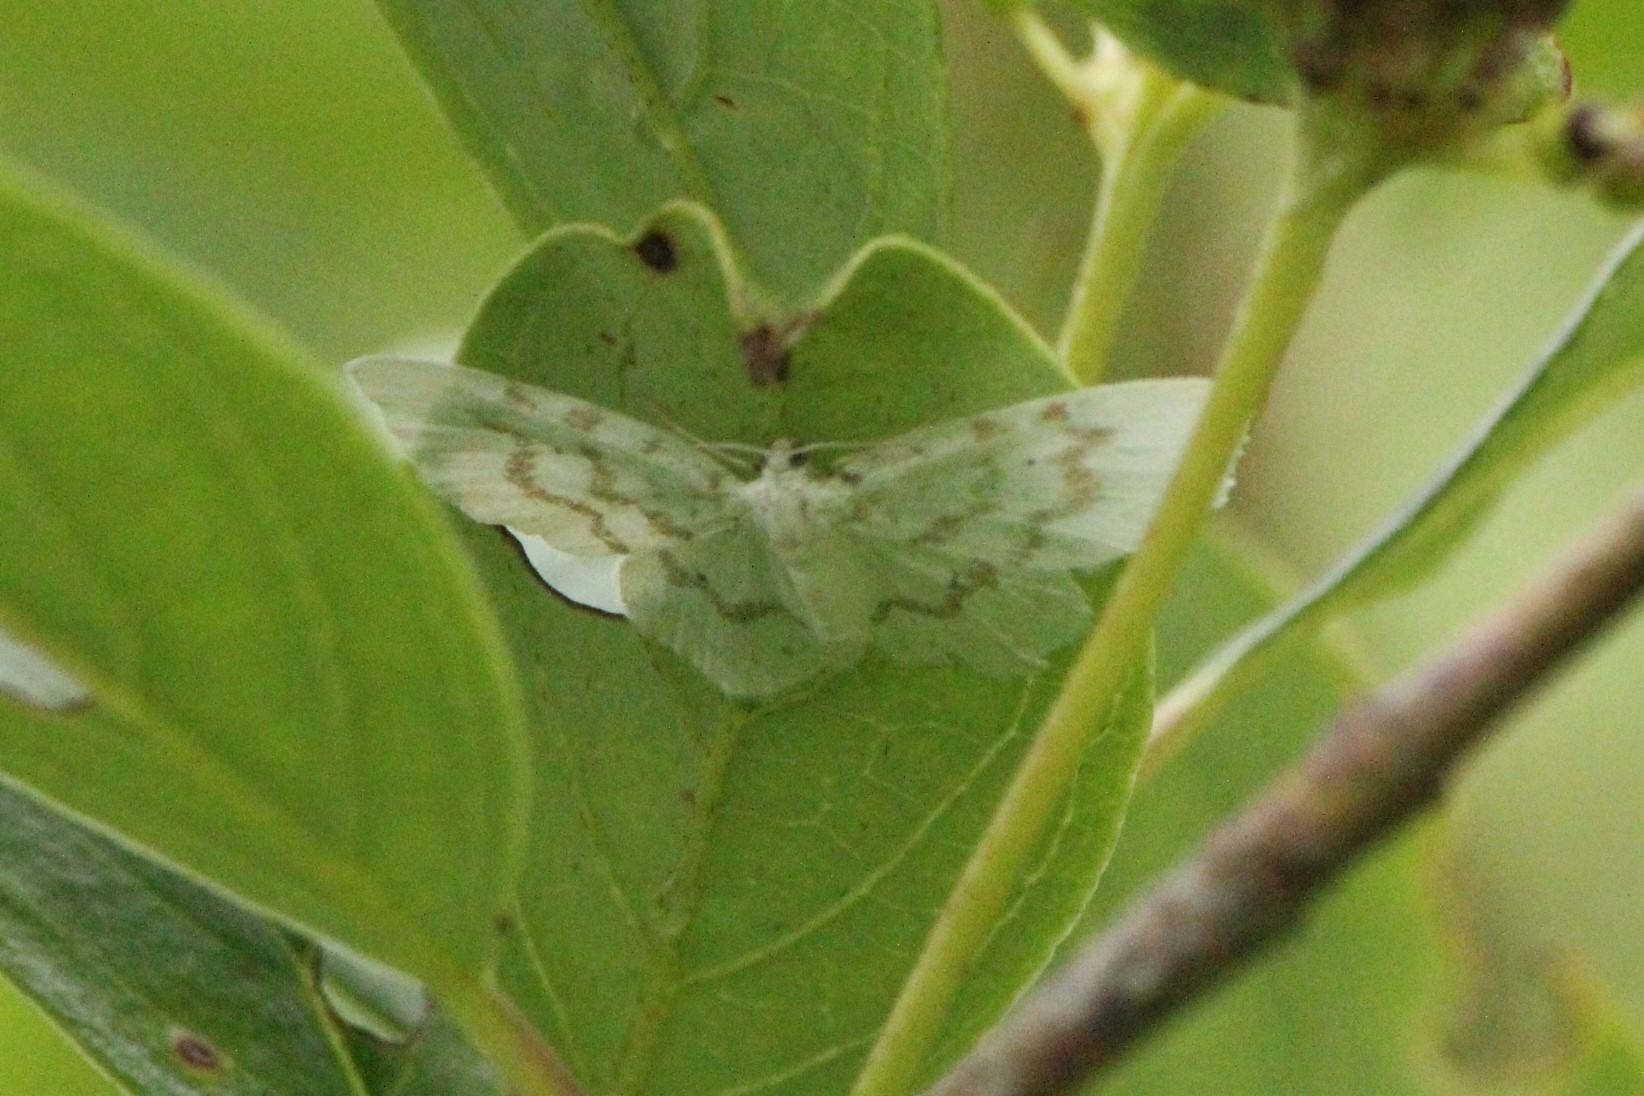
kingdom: Animalia
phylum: Arthropoda
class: Insecta
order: Lepidoptera
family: Geometridae
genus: Hydrelia
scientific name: Hydrelia albifera
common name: Fragile white carpet
